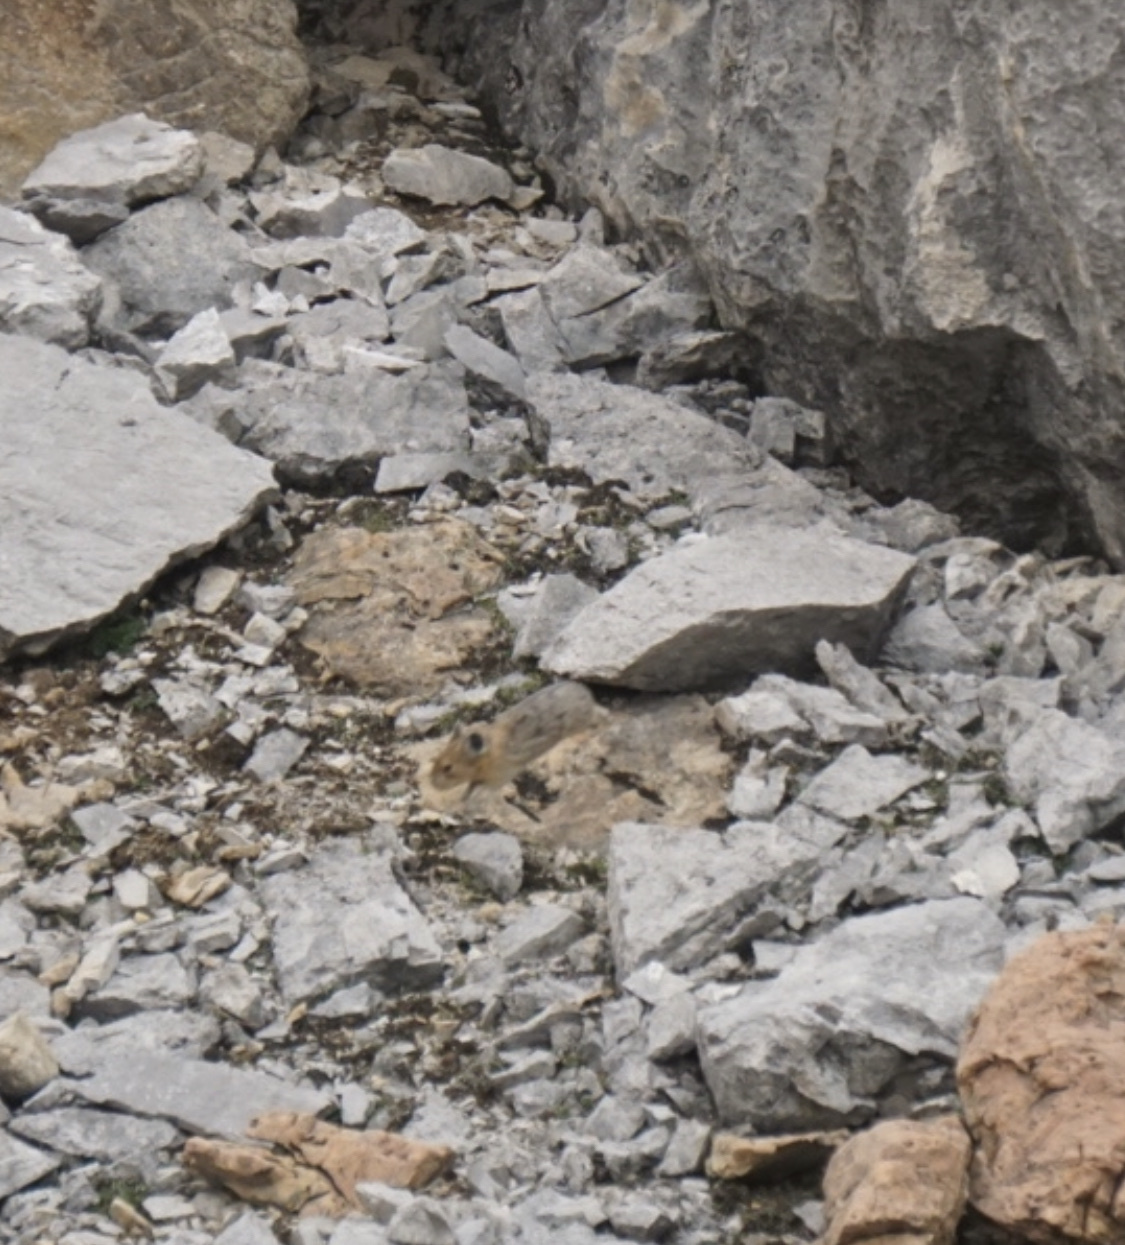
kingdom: Animalia
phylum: Chordata
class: Mammalia
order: Lagomorpha
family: Ochotonidae
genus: Ochotona
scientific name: Ochotona princeps
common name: American pika
